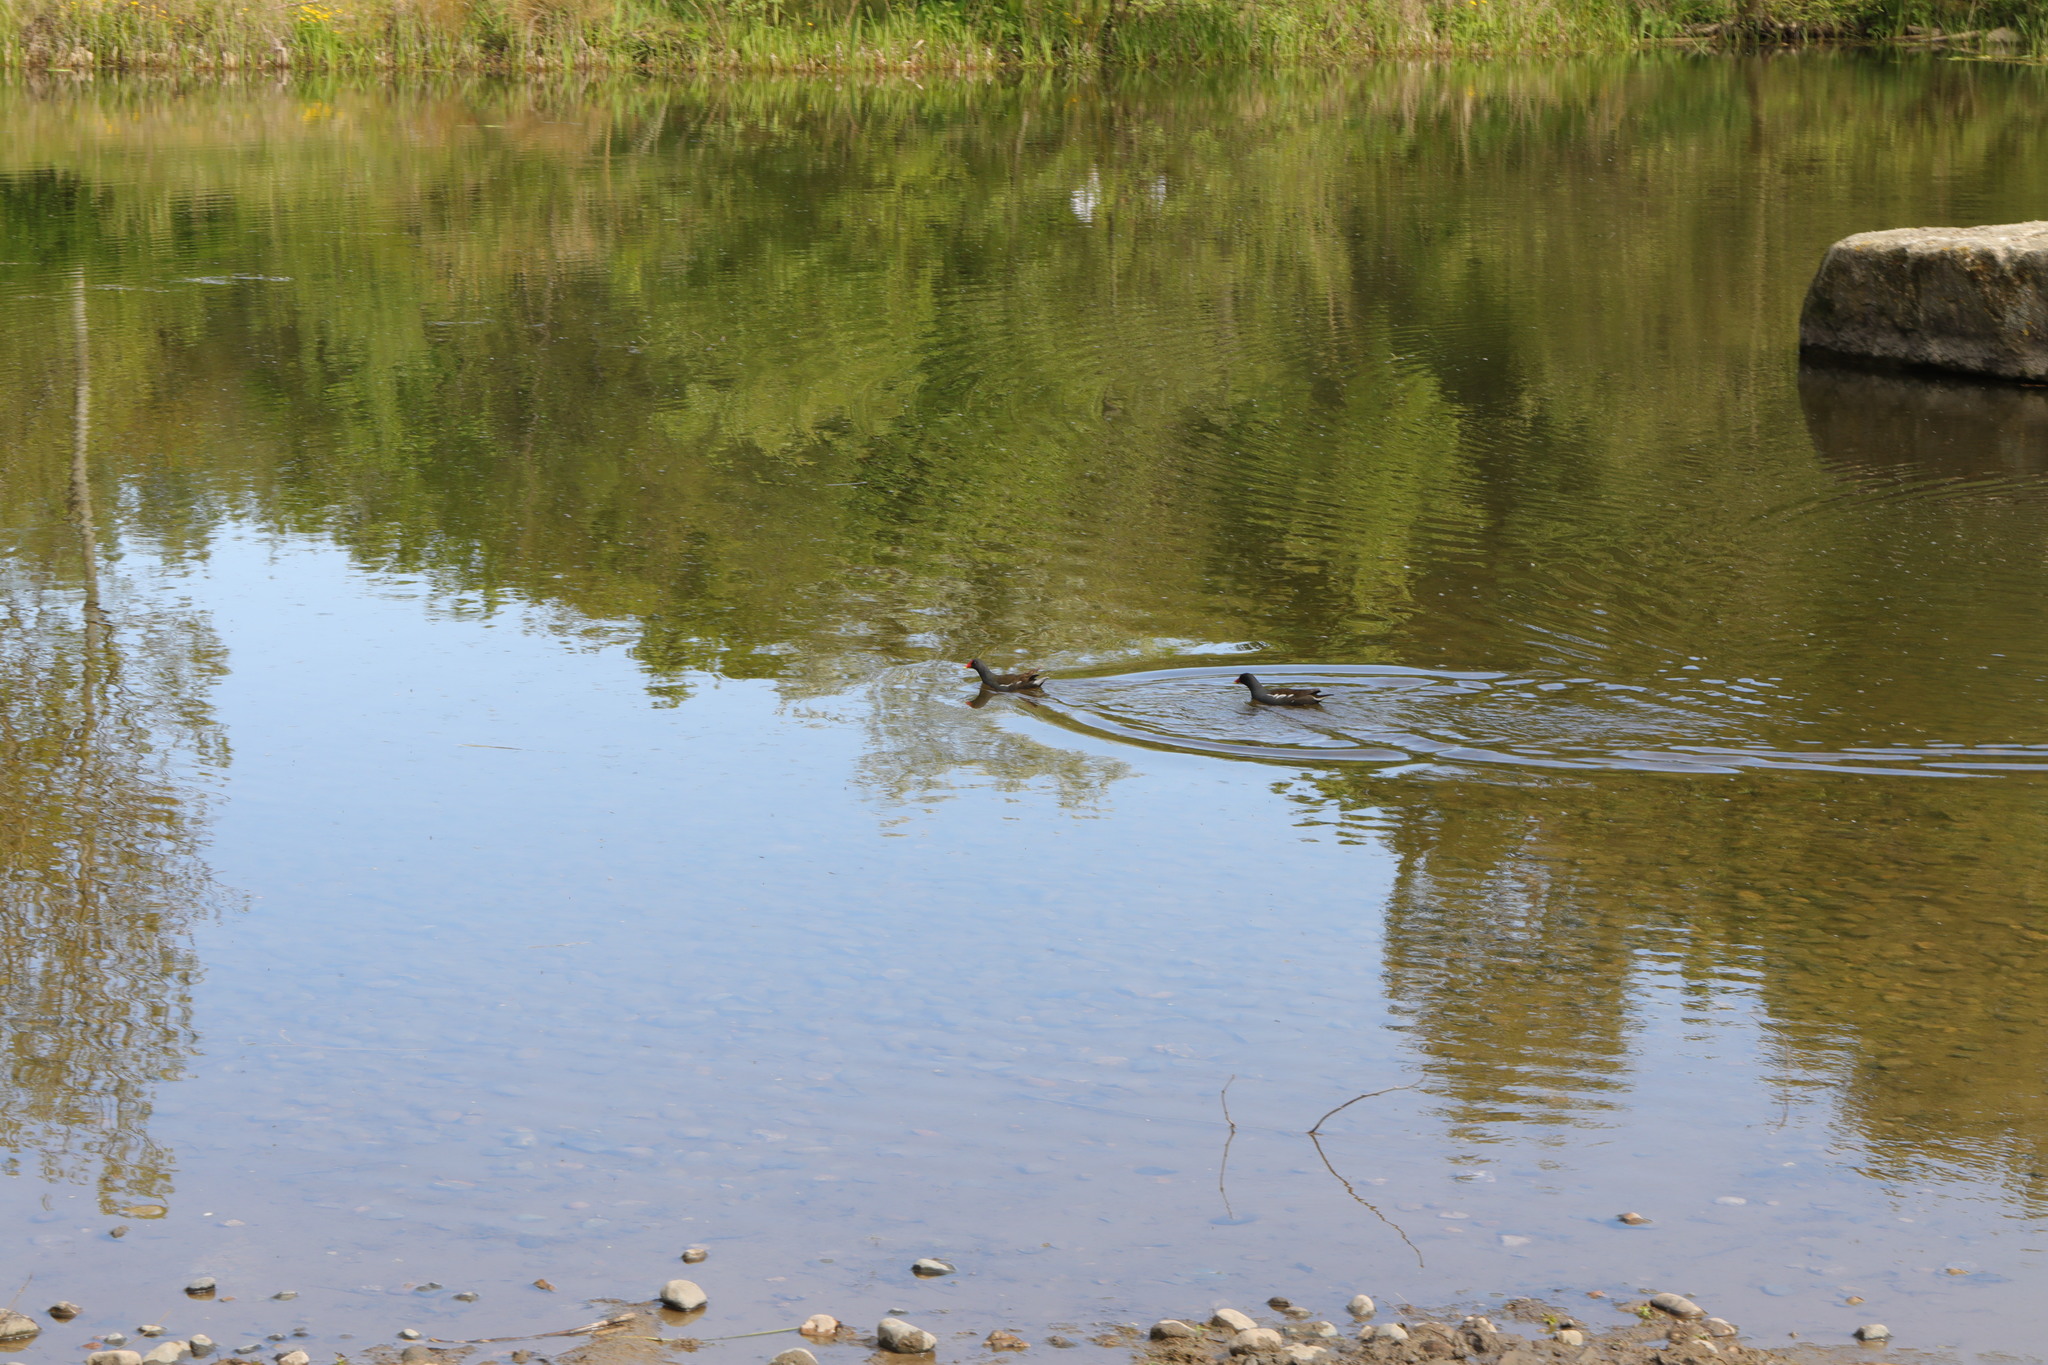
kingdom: Animalia
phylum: Chordata
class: Aves
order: Gruiformes
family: Rallidae
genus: Gallinula
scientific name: Gallinula chloropus
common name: Common moorhen
